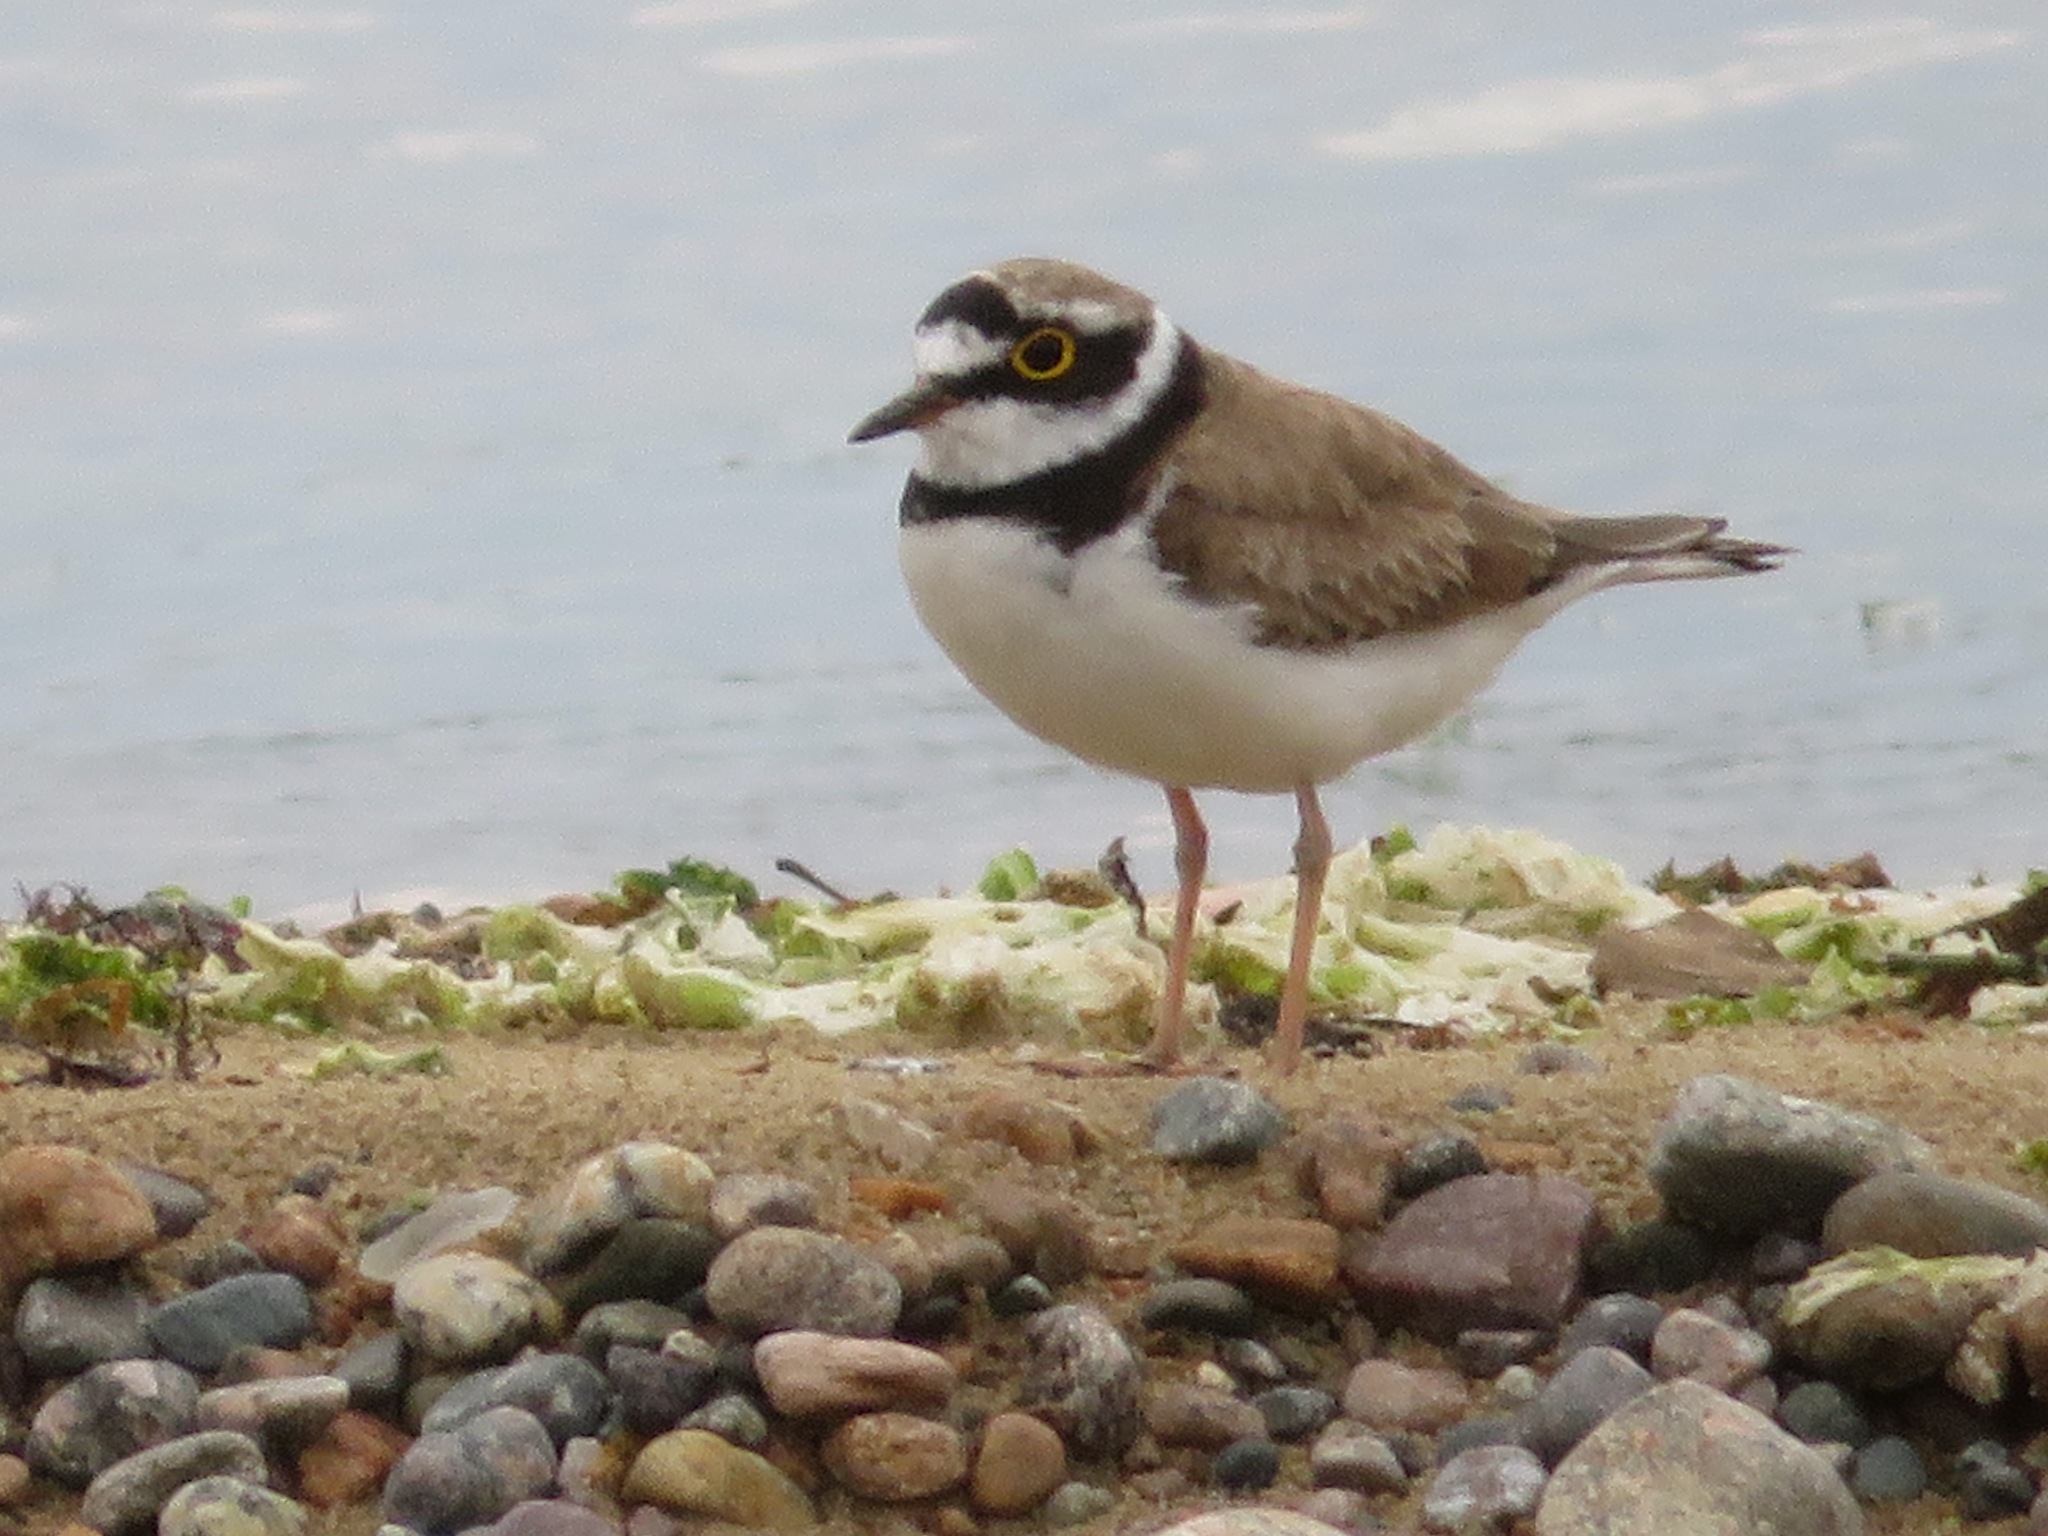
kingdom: Animalia
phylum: Chordata
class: Aves
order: Charadriiformes
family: Charadriidae
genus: Charadrius
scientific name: Charadrius dubius
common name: Little ringed plover
